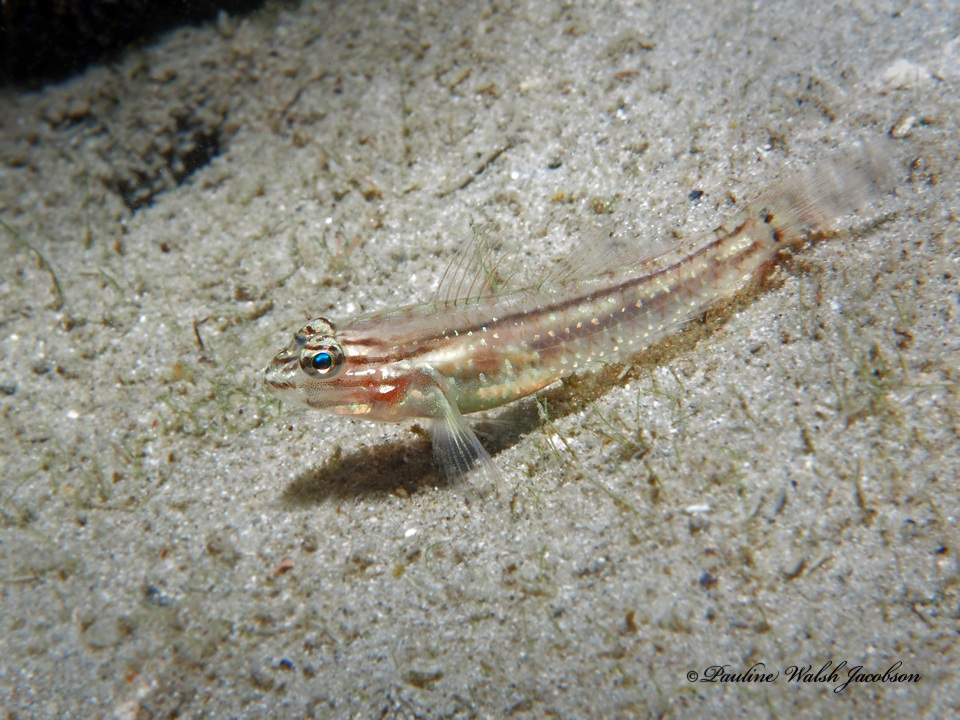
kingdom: Animalia
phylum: Chordata
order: Perciformes
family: Gobiidae
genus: Coryphopterus
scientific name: Coryphopterus glaucofraenum
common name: Bridled goby
